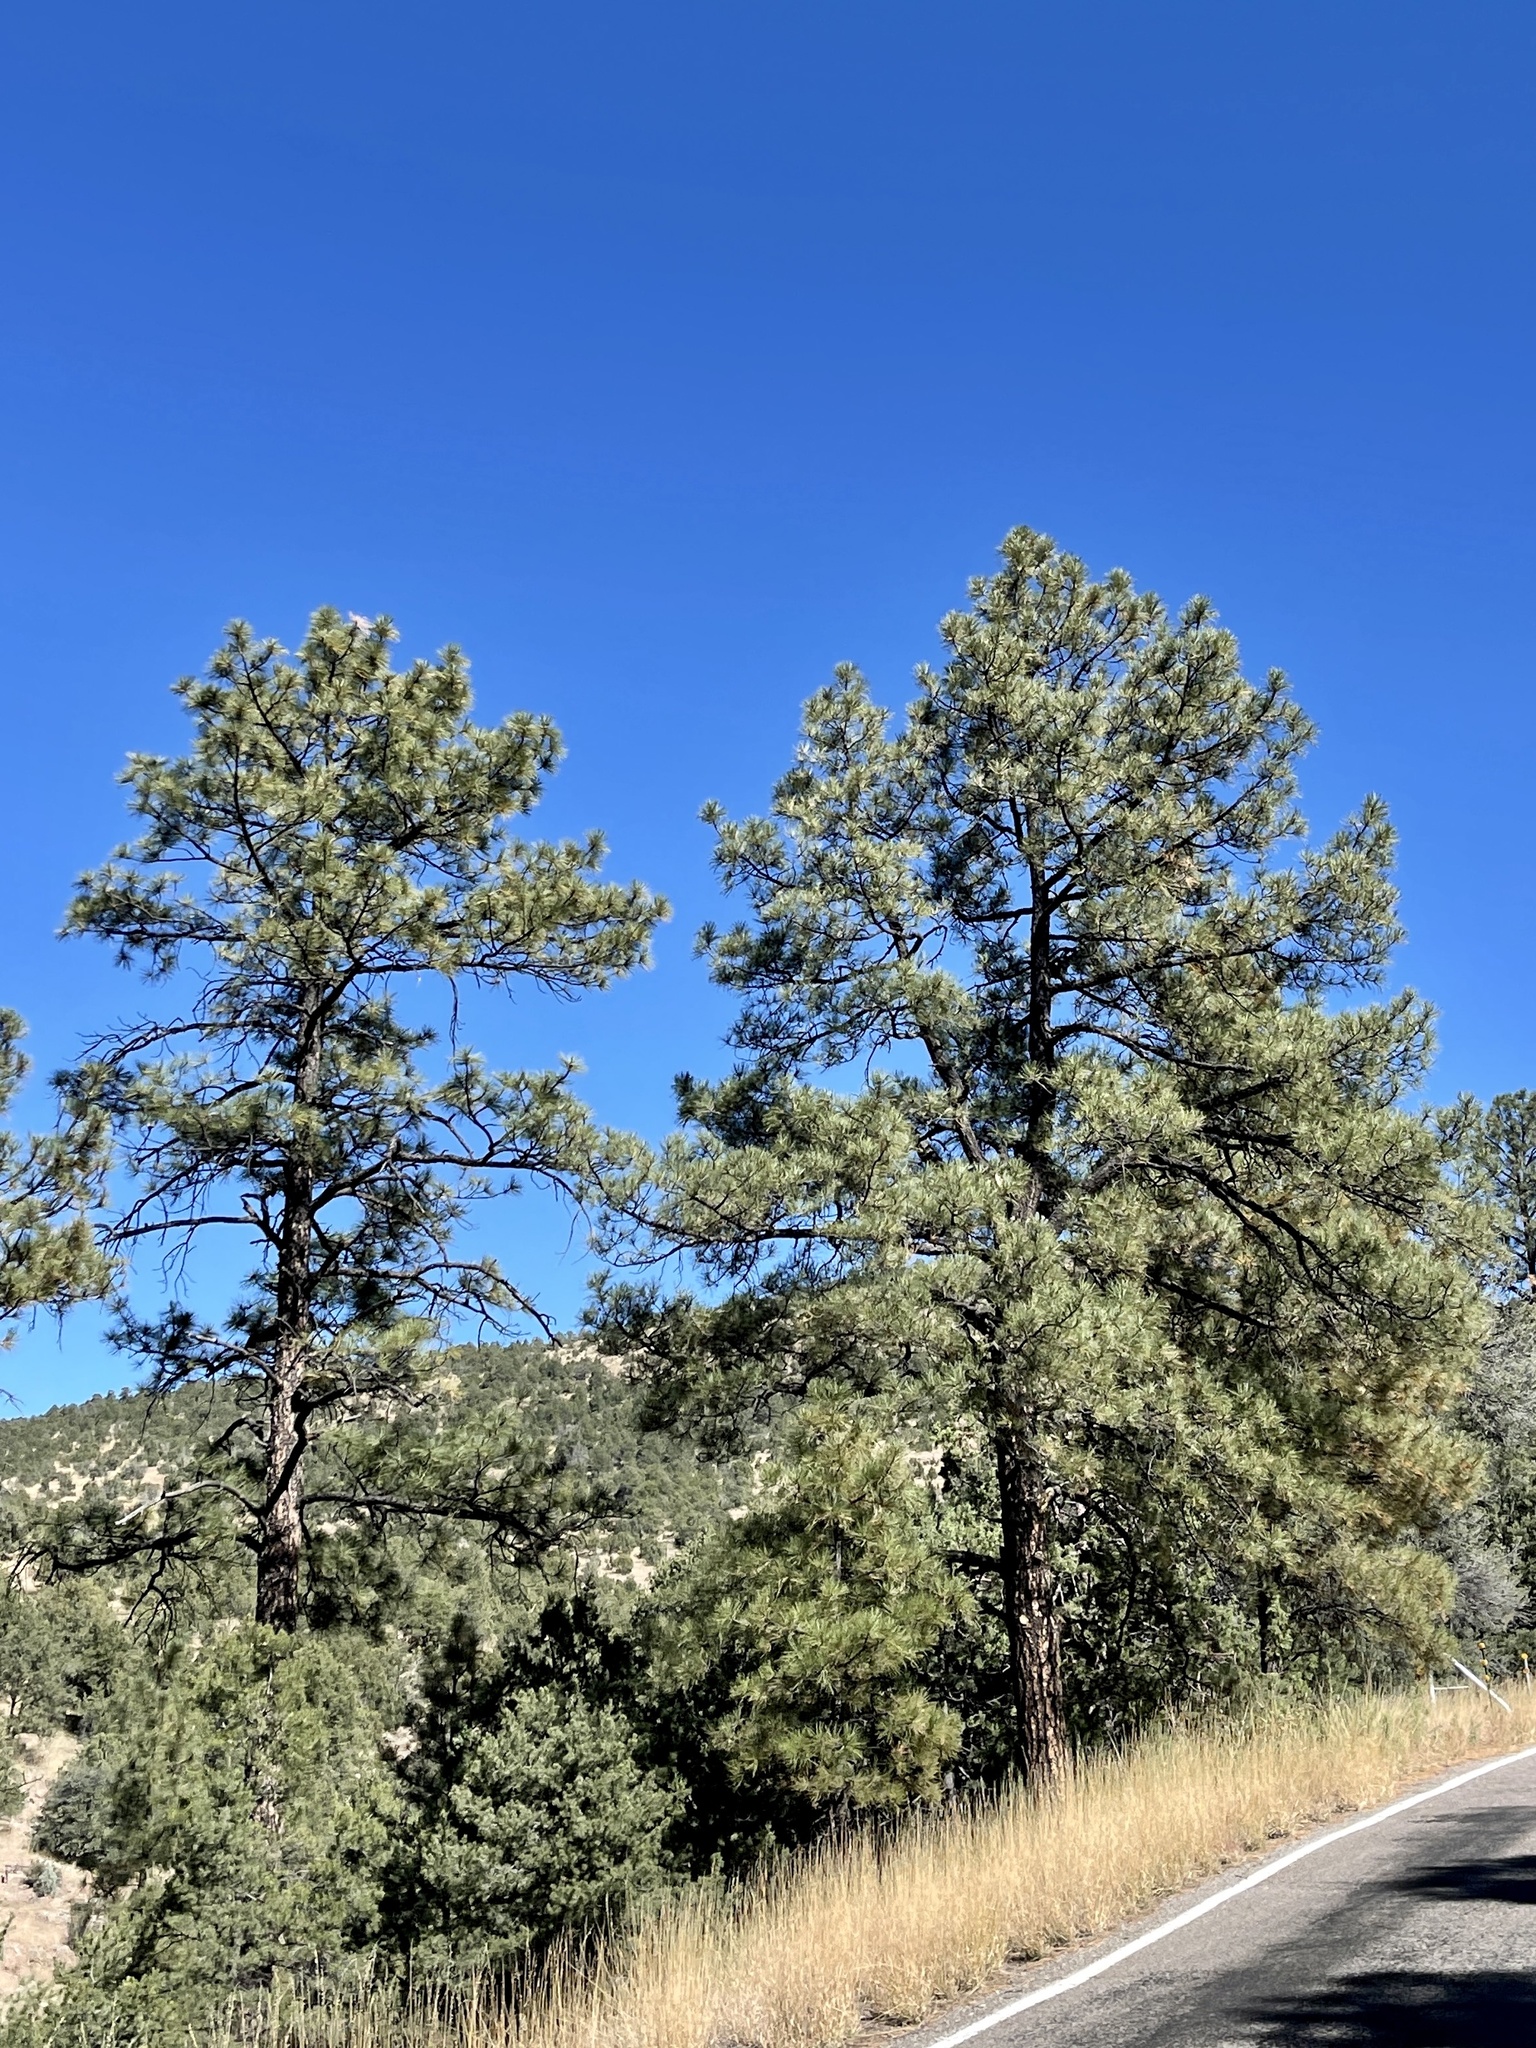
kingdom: Plantae
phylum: Tracheophyta
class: Pinopsida
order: Pinales
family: Pinaceae
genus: Pinus
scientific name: Pinus ponderosa
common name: Western yellow-pine
